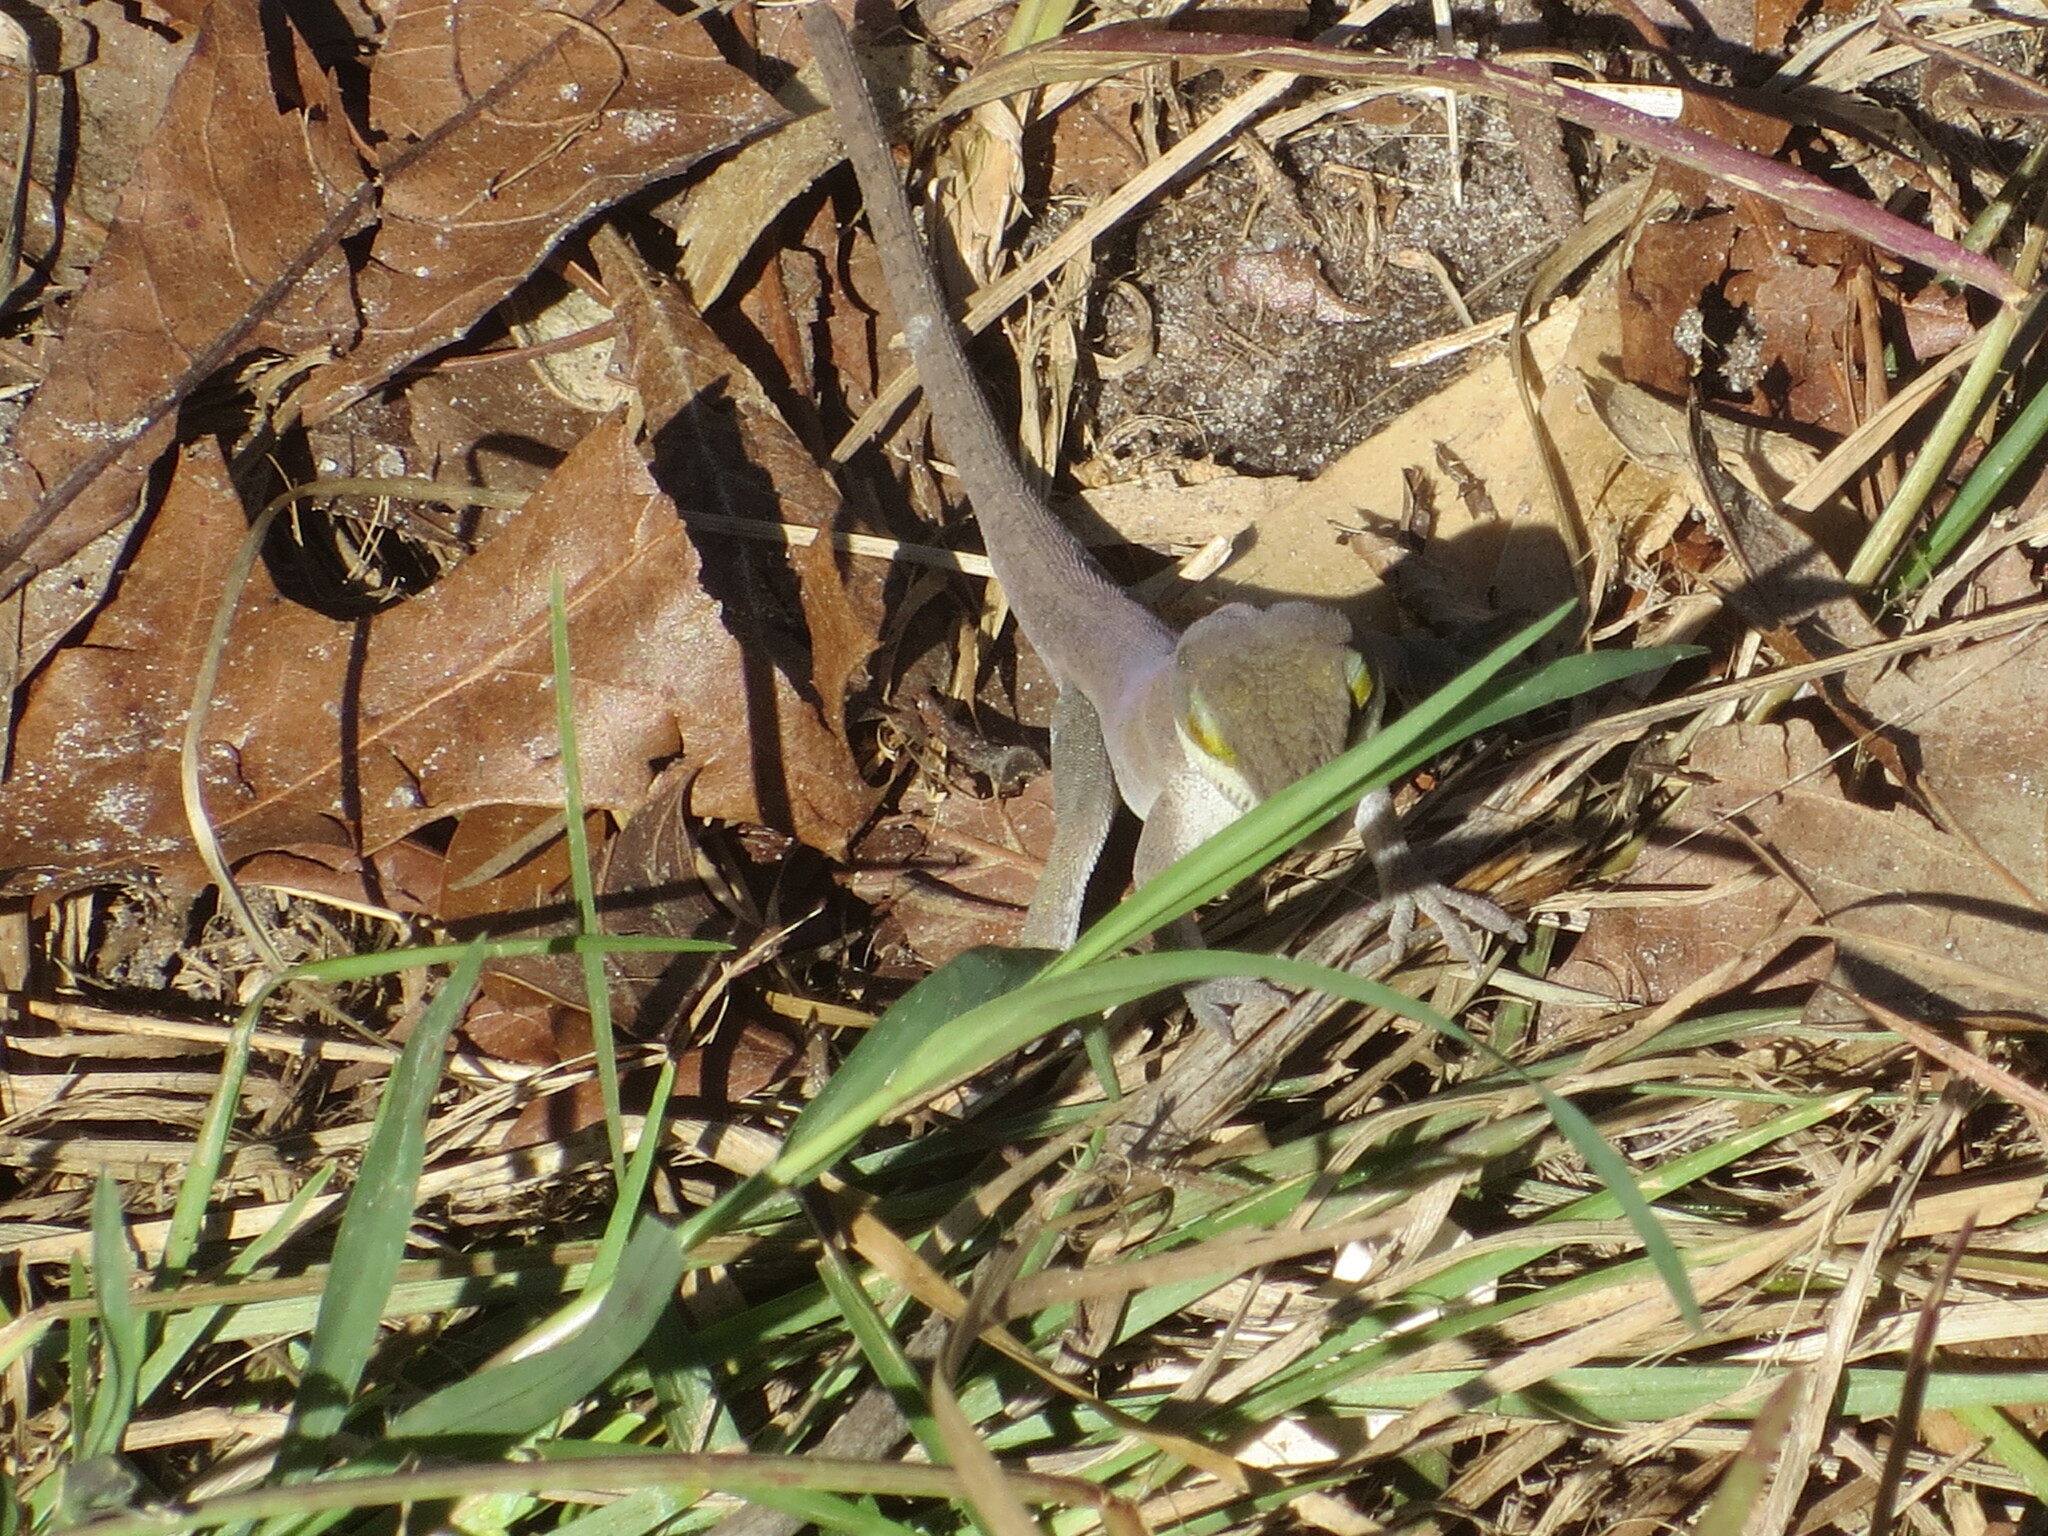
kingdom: Animalia
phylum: Chordata
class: Squamata
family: Dactyloidae
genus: Anolis
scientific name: Anolis carolinensis
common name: Green anole
